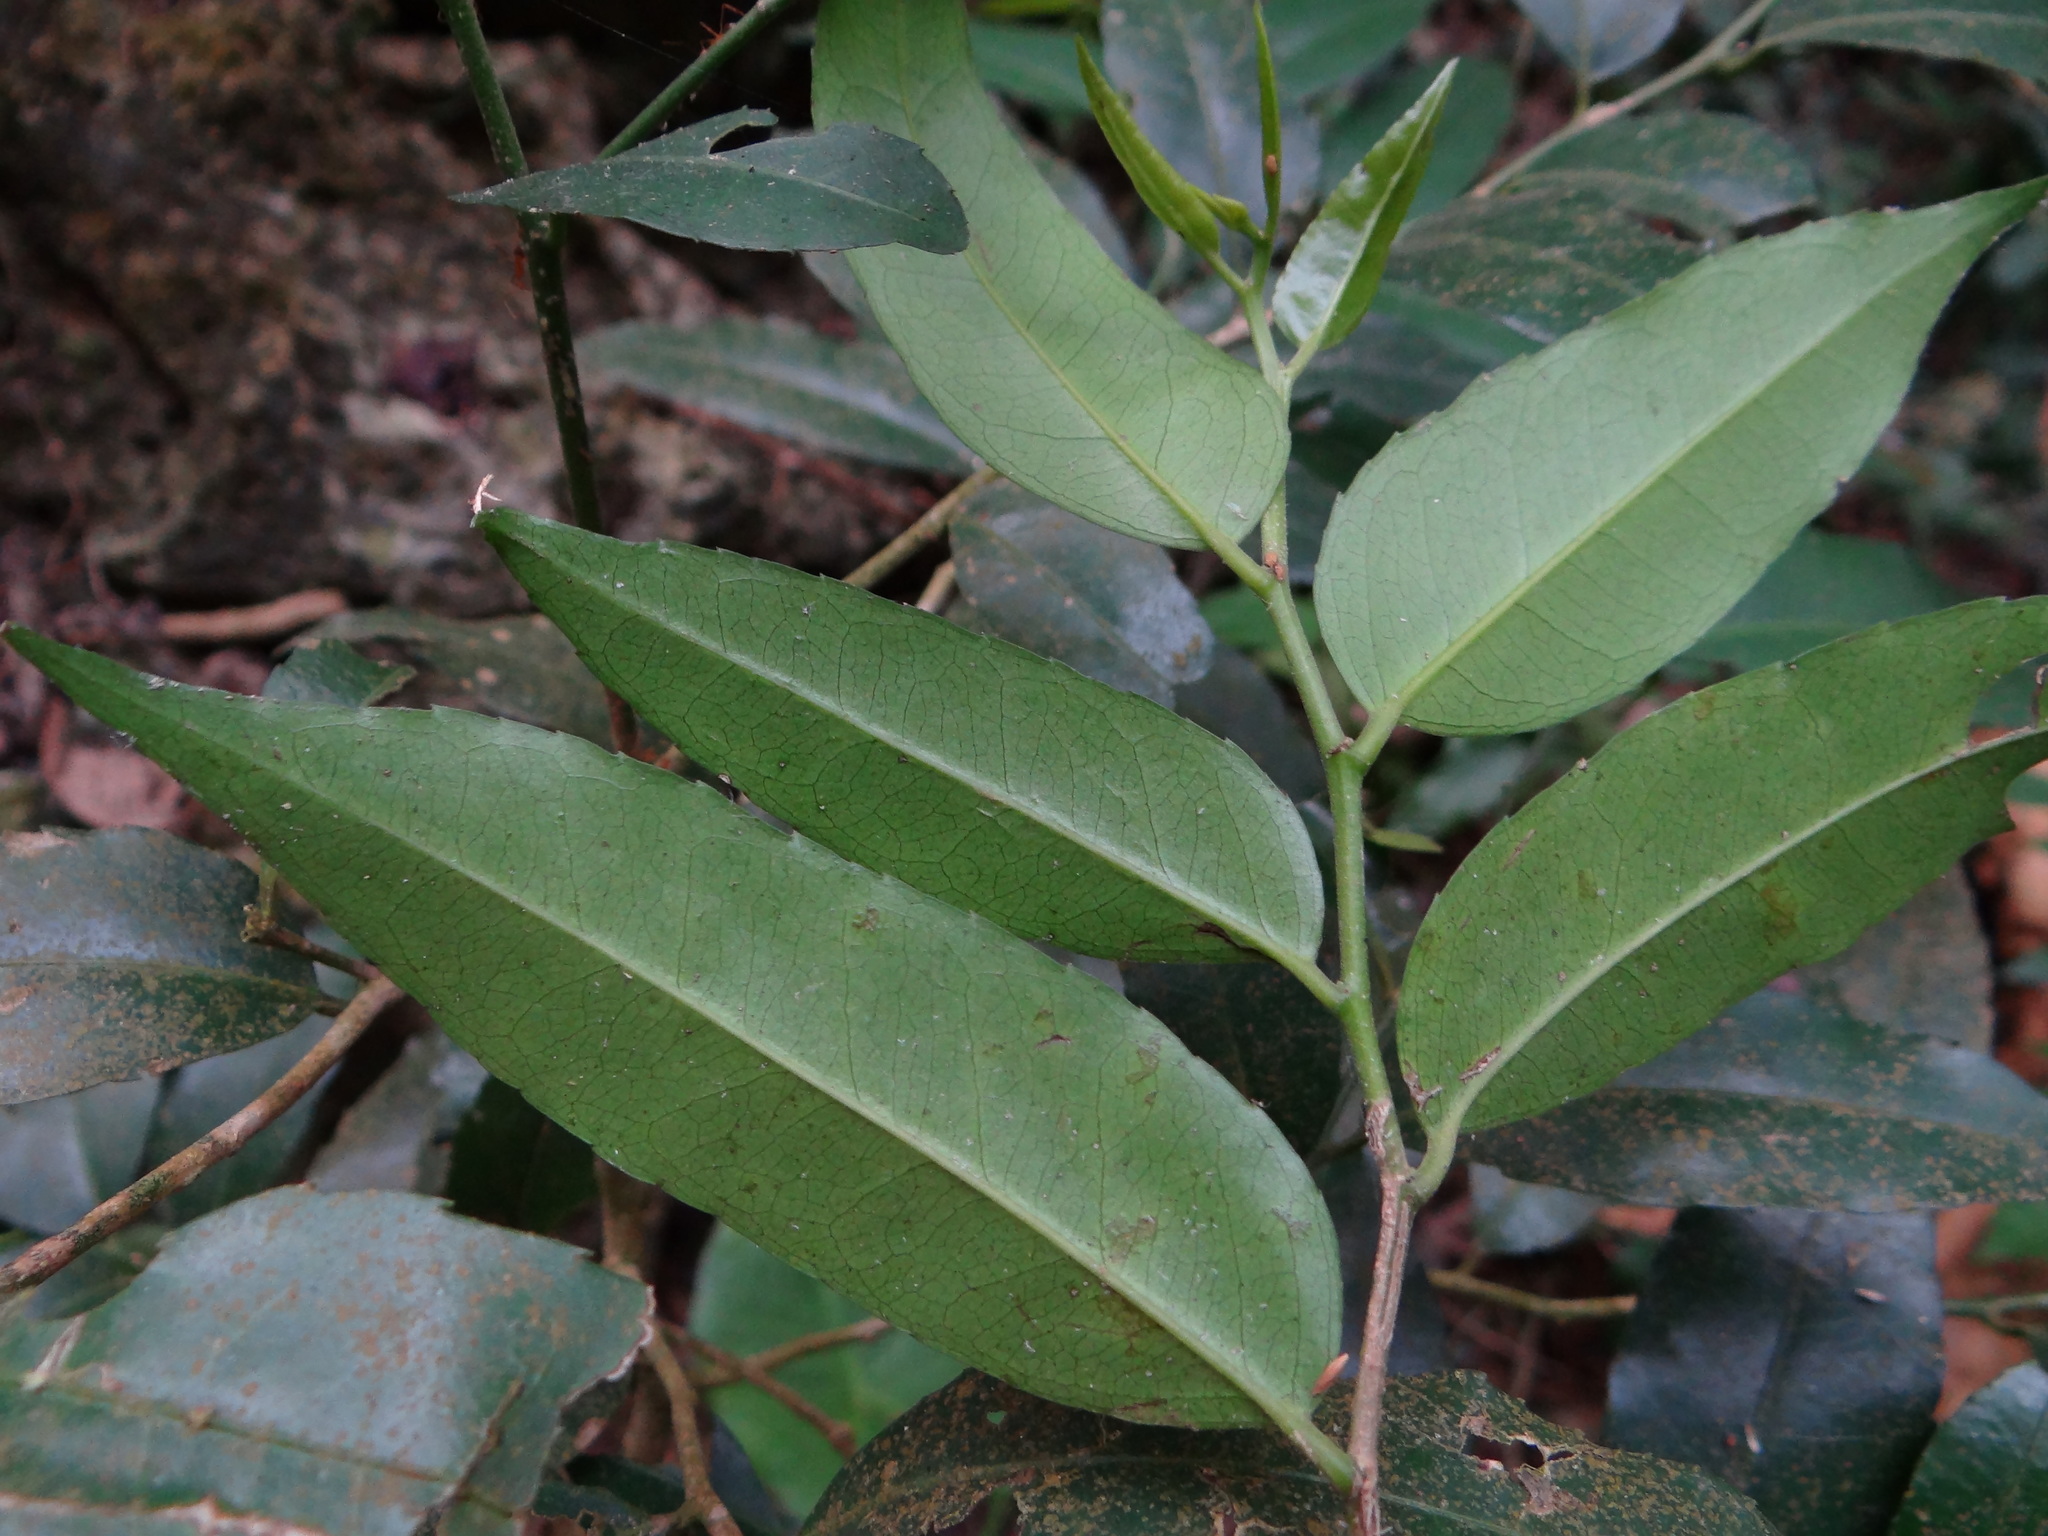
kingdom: Plantae
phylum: Tracheophyta
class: Magnoliopsida
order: Malpighiales
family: Putranjivaceae
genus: Putranjiva
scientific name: Putranjiva formosana
